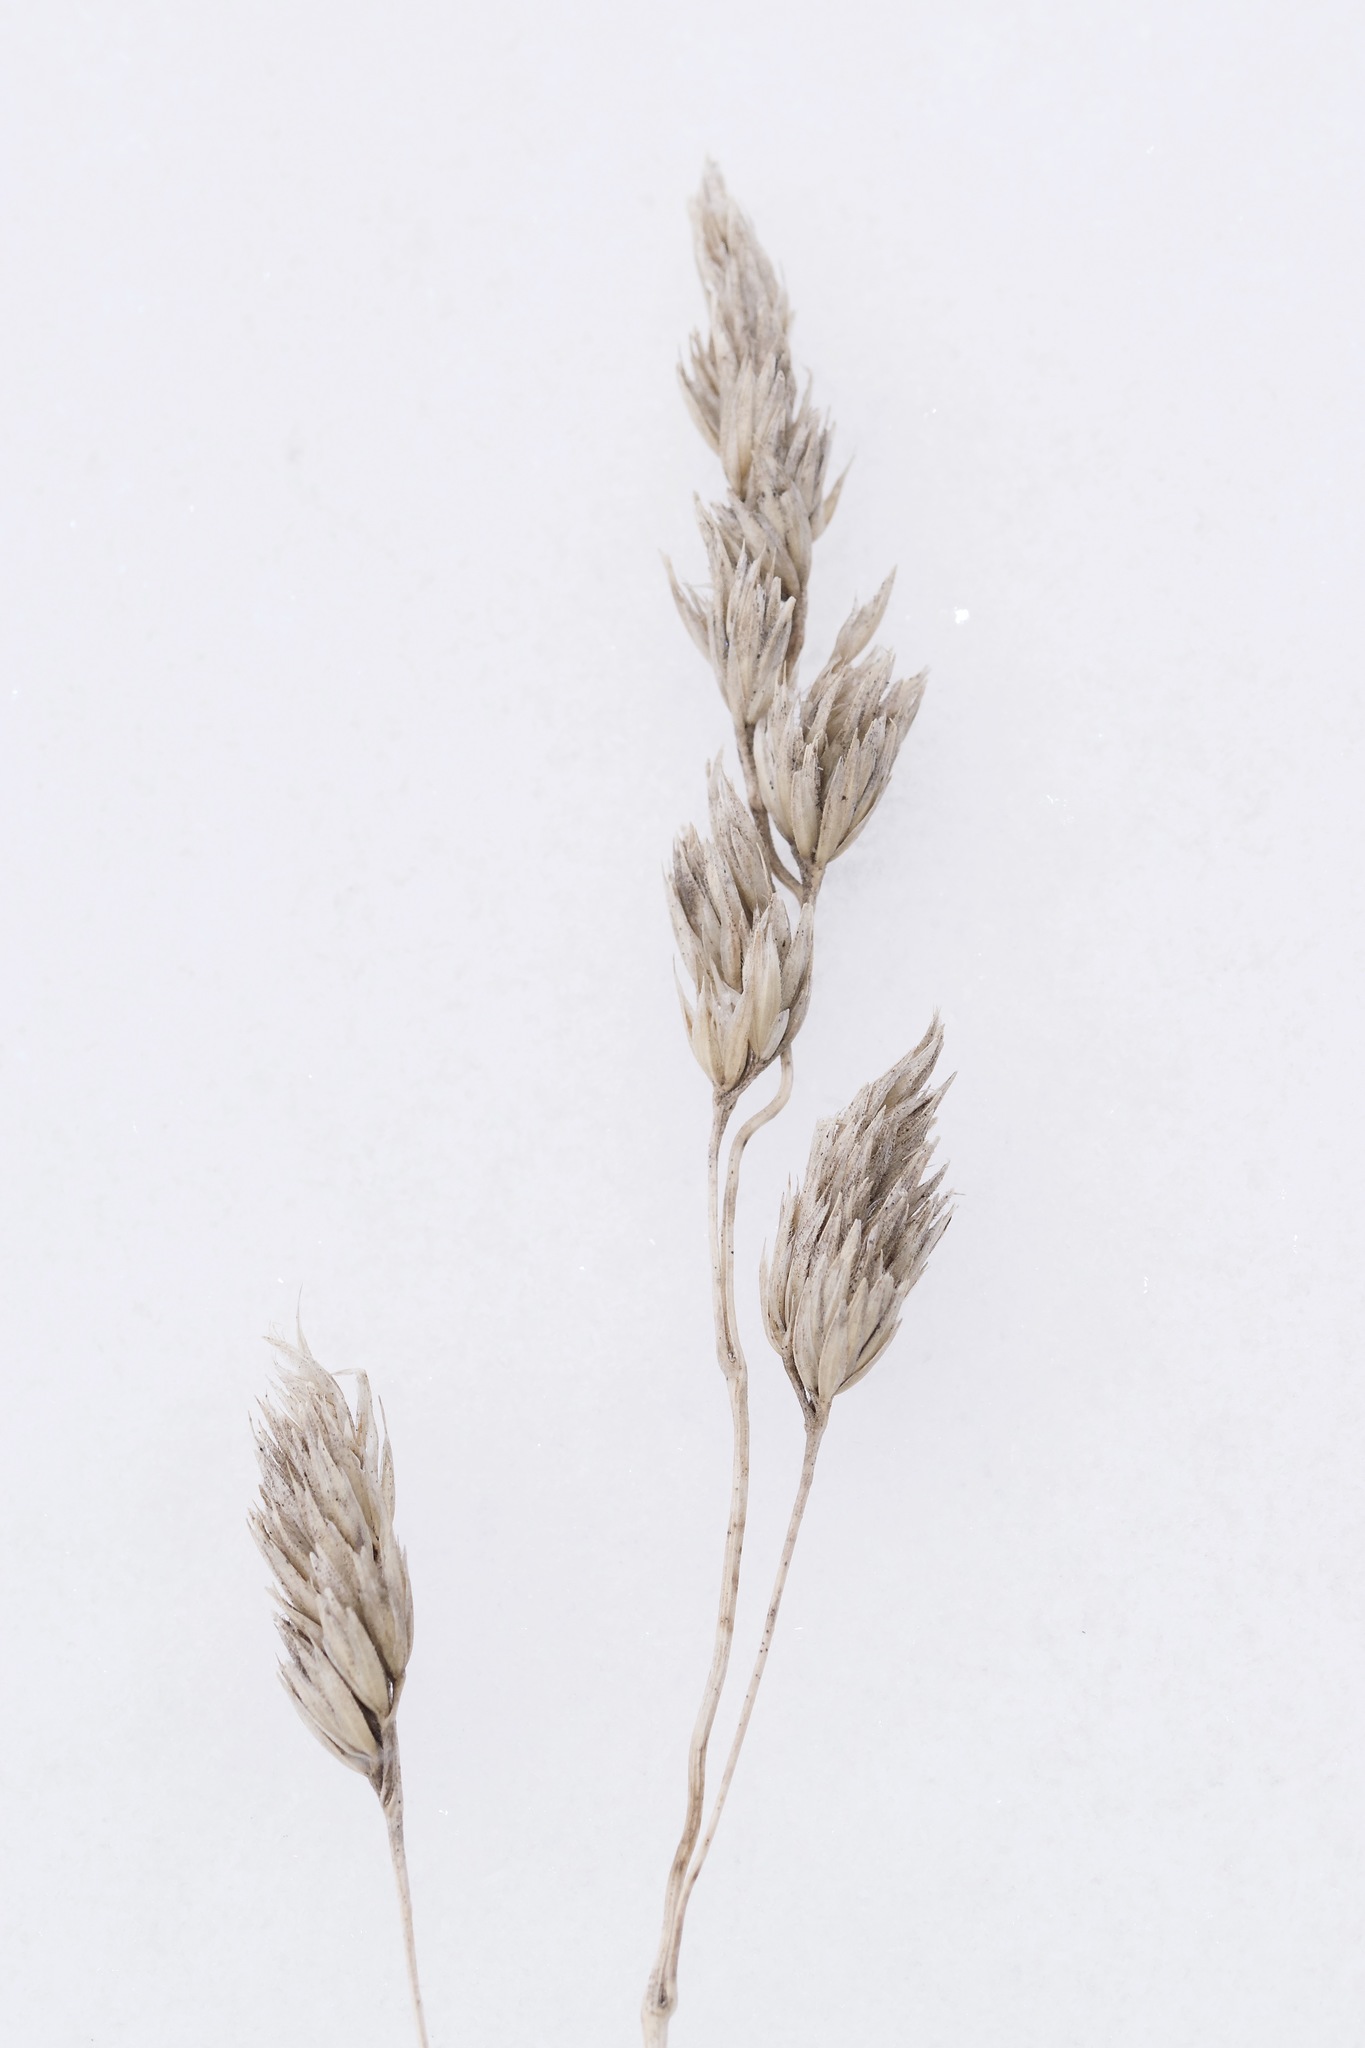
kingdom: Plantae
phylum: Tracheophyta
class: Liliopsida
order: Poales
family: Poaceae
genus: Dactylis
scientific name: Dactylis glomerata
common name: Orchardgrass
